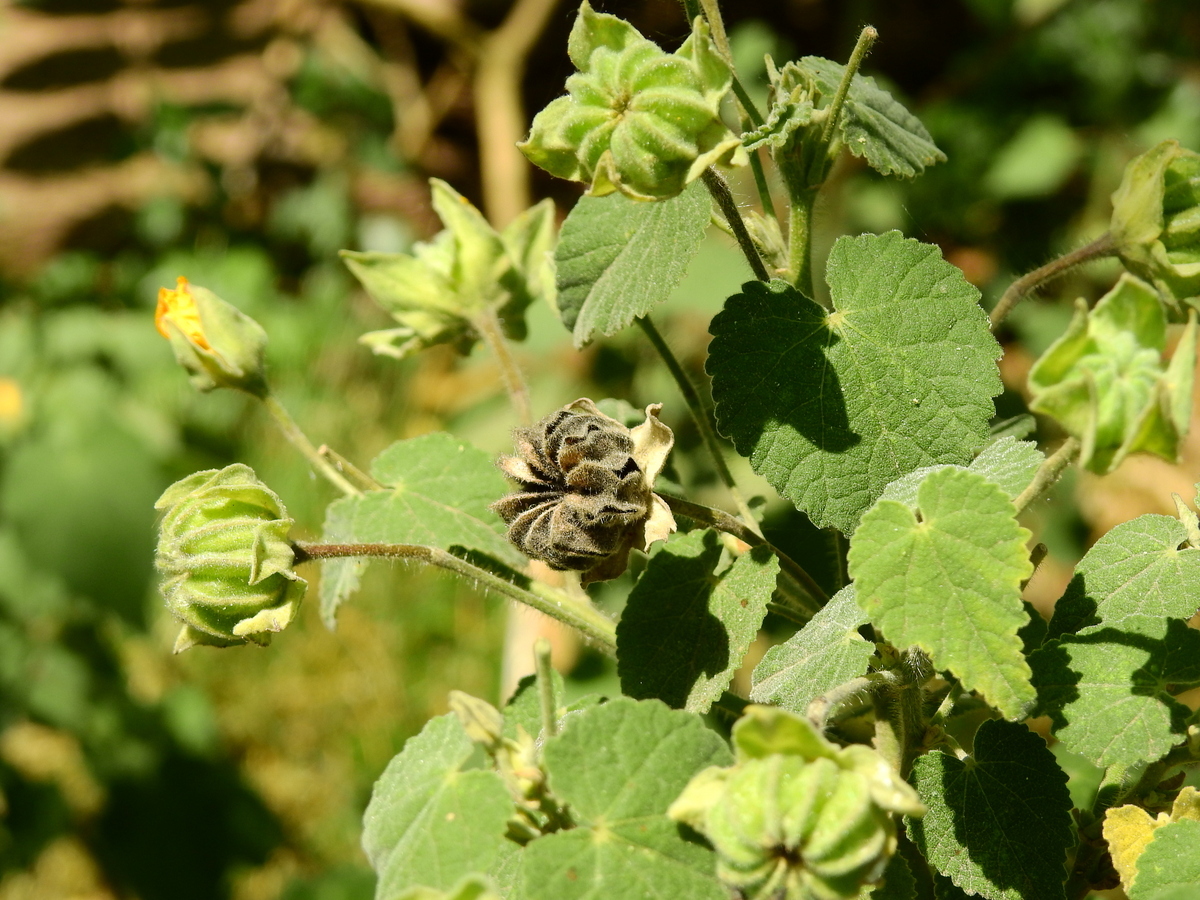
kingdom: Plantae
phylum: Tracheophyta
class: Magnoliopsida
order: Malvales
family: Malvaceae
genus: Abutilon
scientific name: Abutilon grandifolium
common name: Hairy abutilon
